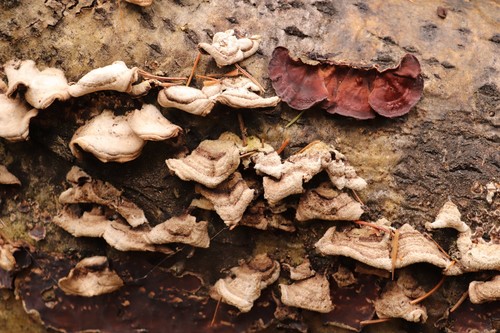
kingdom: Fungi
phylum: Basidiomycota
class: Agaricomycetes
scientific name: Agaricomycetes
